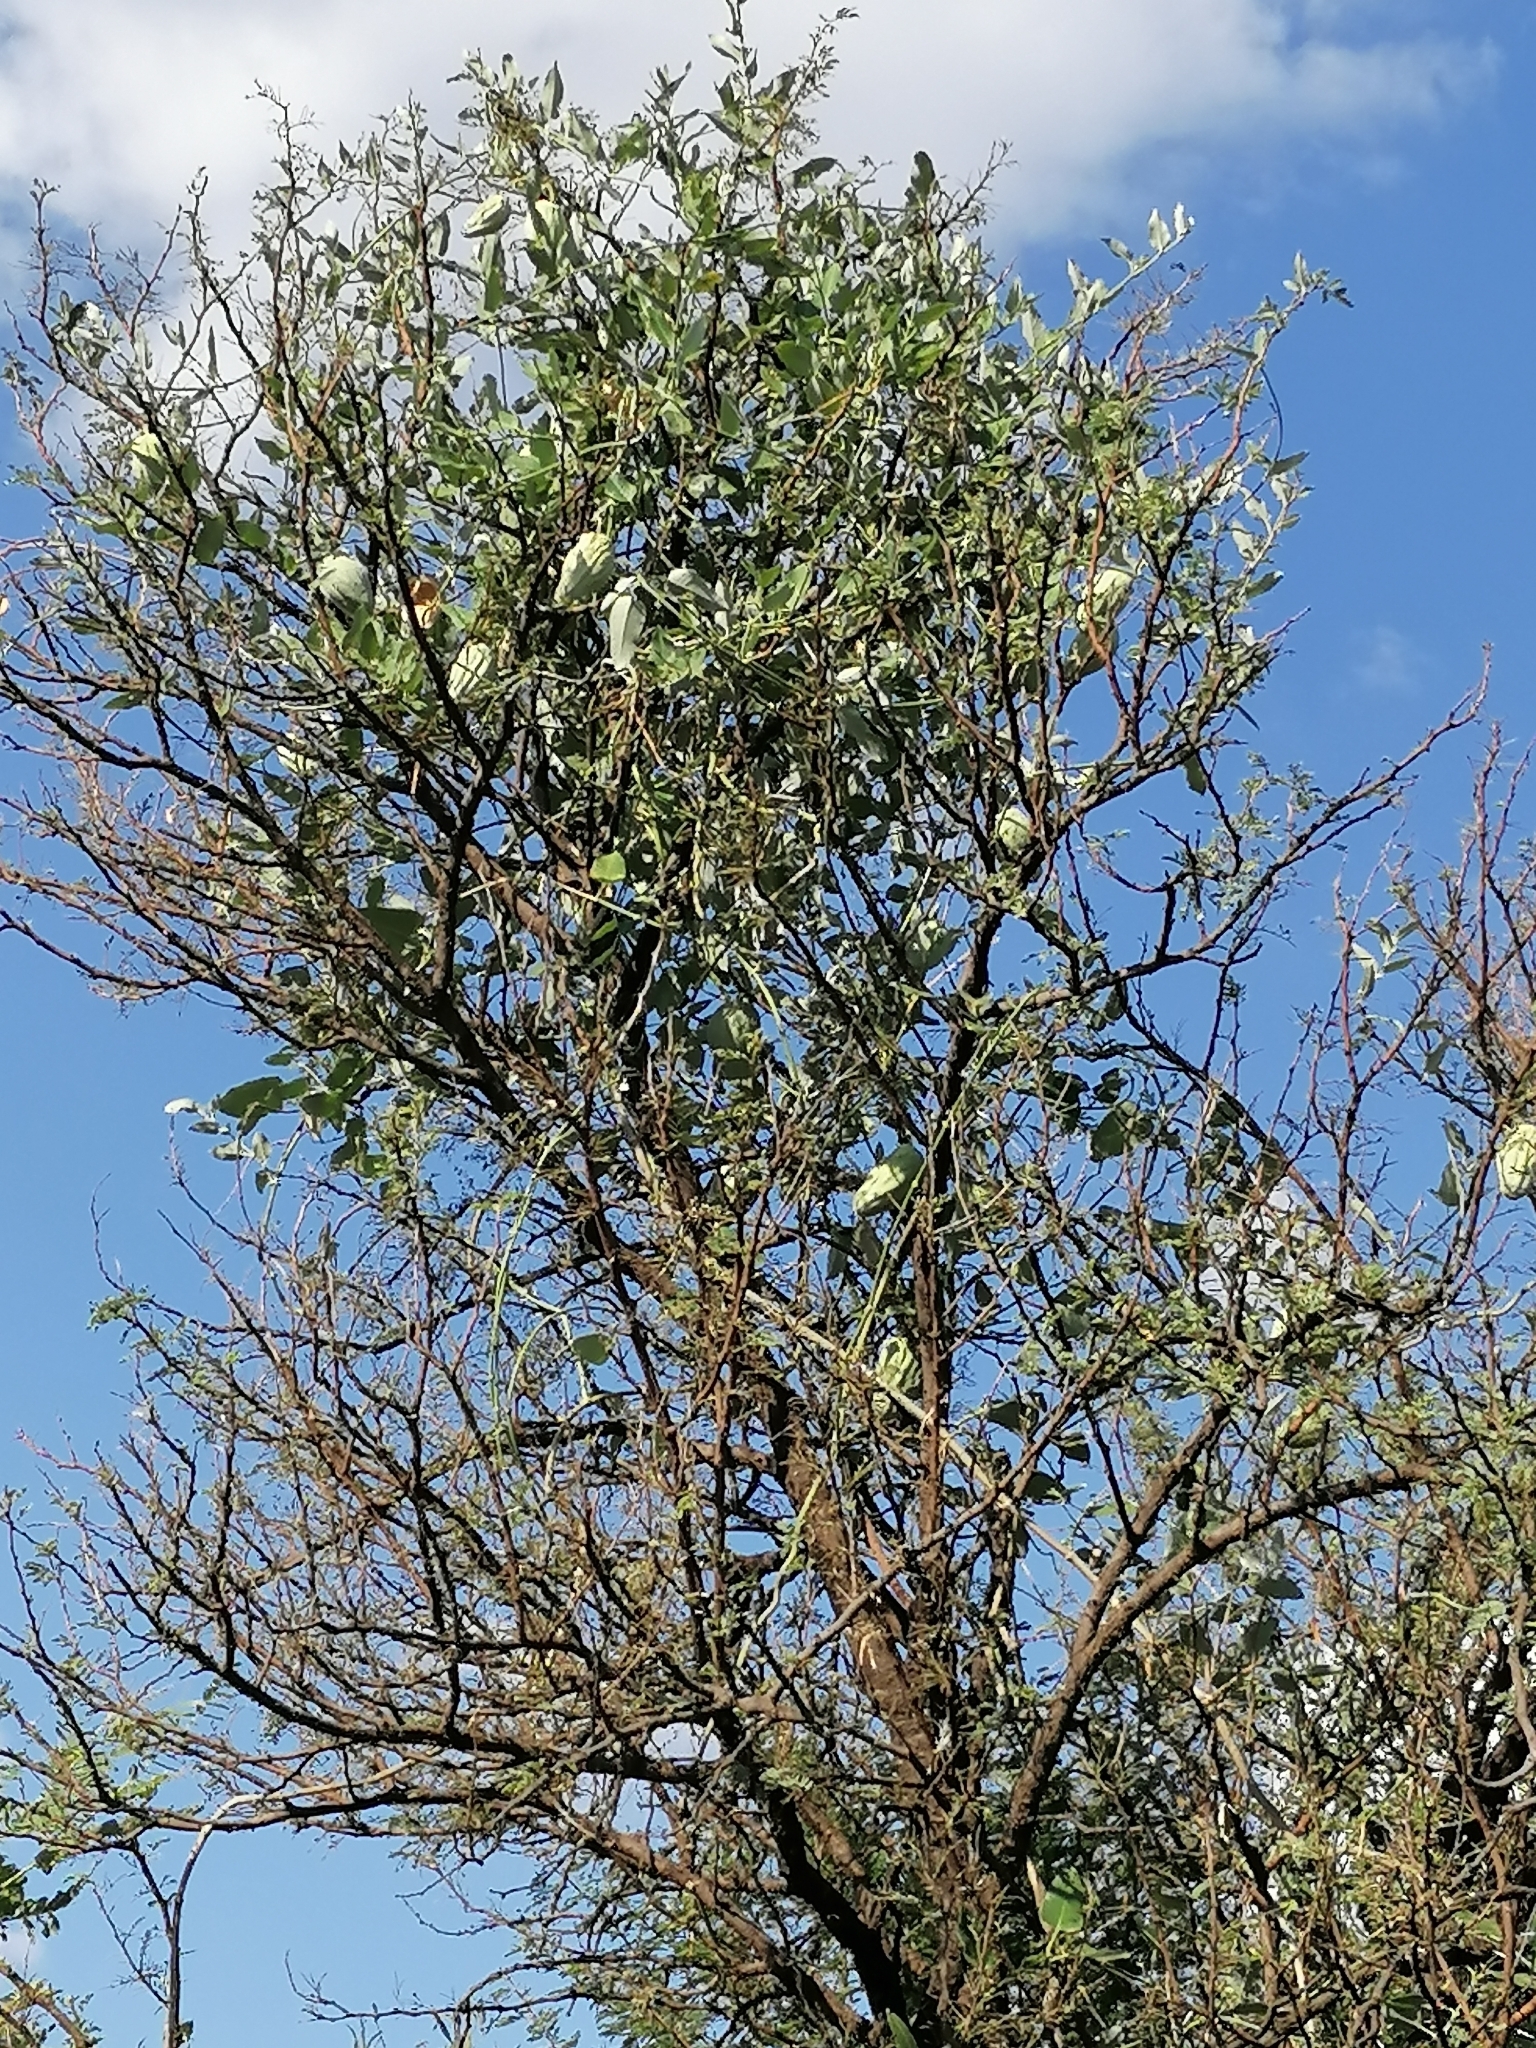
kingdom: Plantae
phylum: Tracheophyta
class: Magnoliopsida
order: Gentianales
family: Apocynaceae
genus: Araujia
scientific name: Araujia sericifera
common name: White bladderflower
